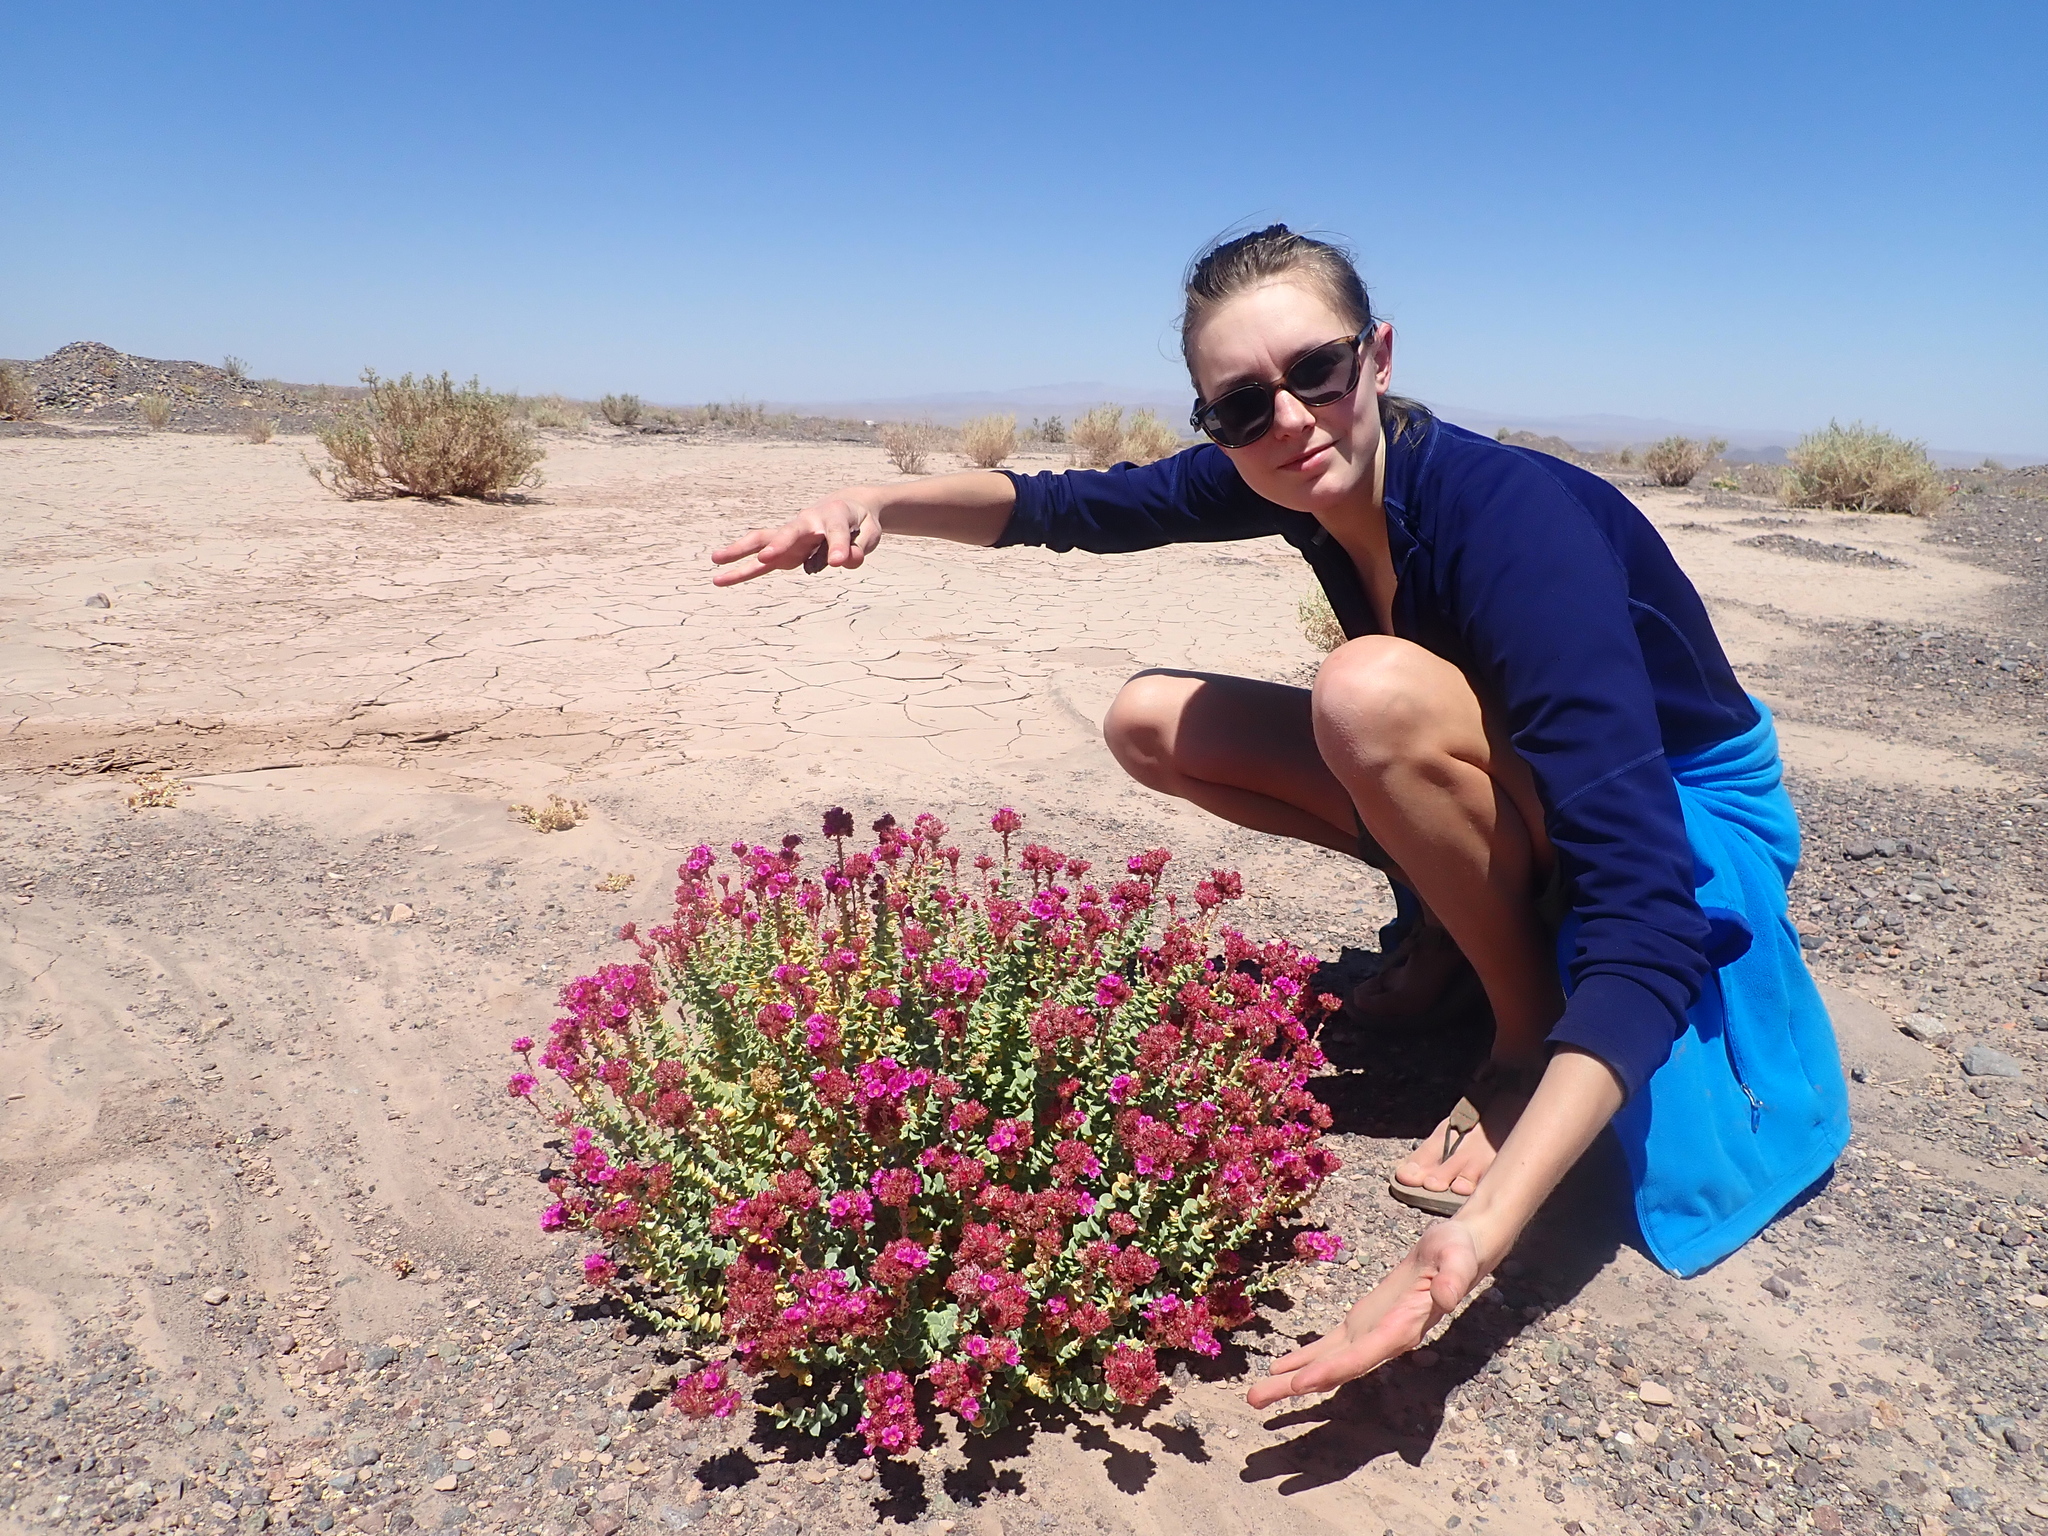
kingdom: Plantae
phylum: Tracheophyta
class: Magnoliopsida
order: Caryophyllales
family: Montiaceae
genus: Philippiamra
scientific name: Philippiamra salsoloides
